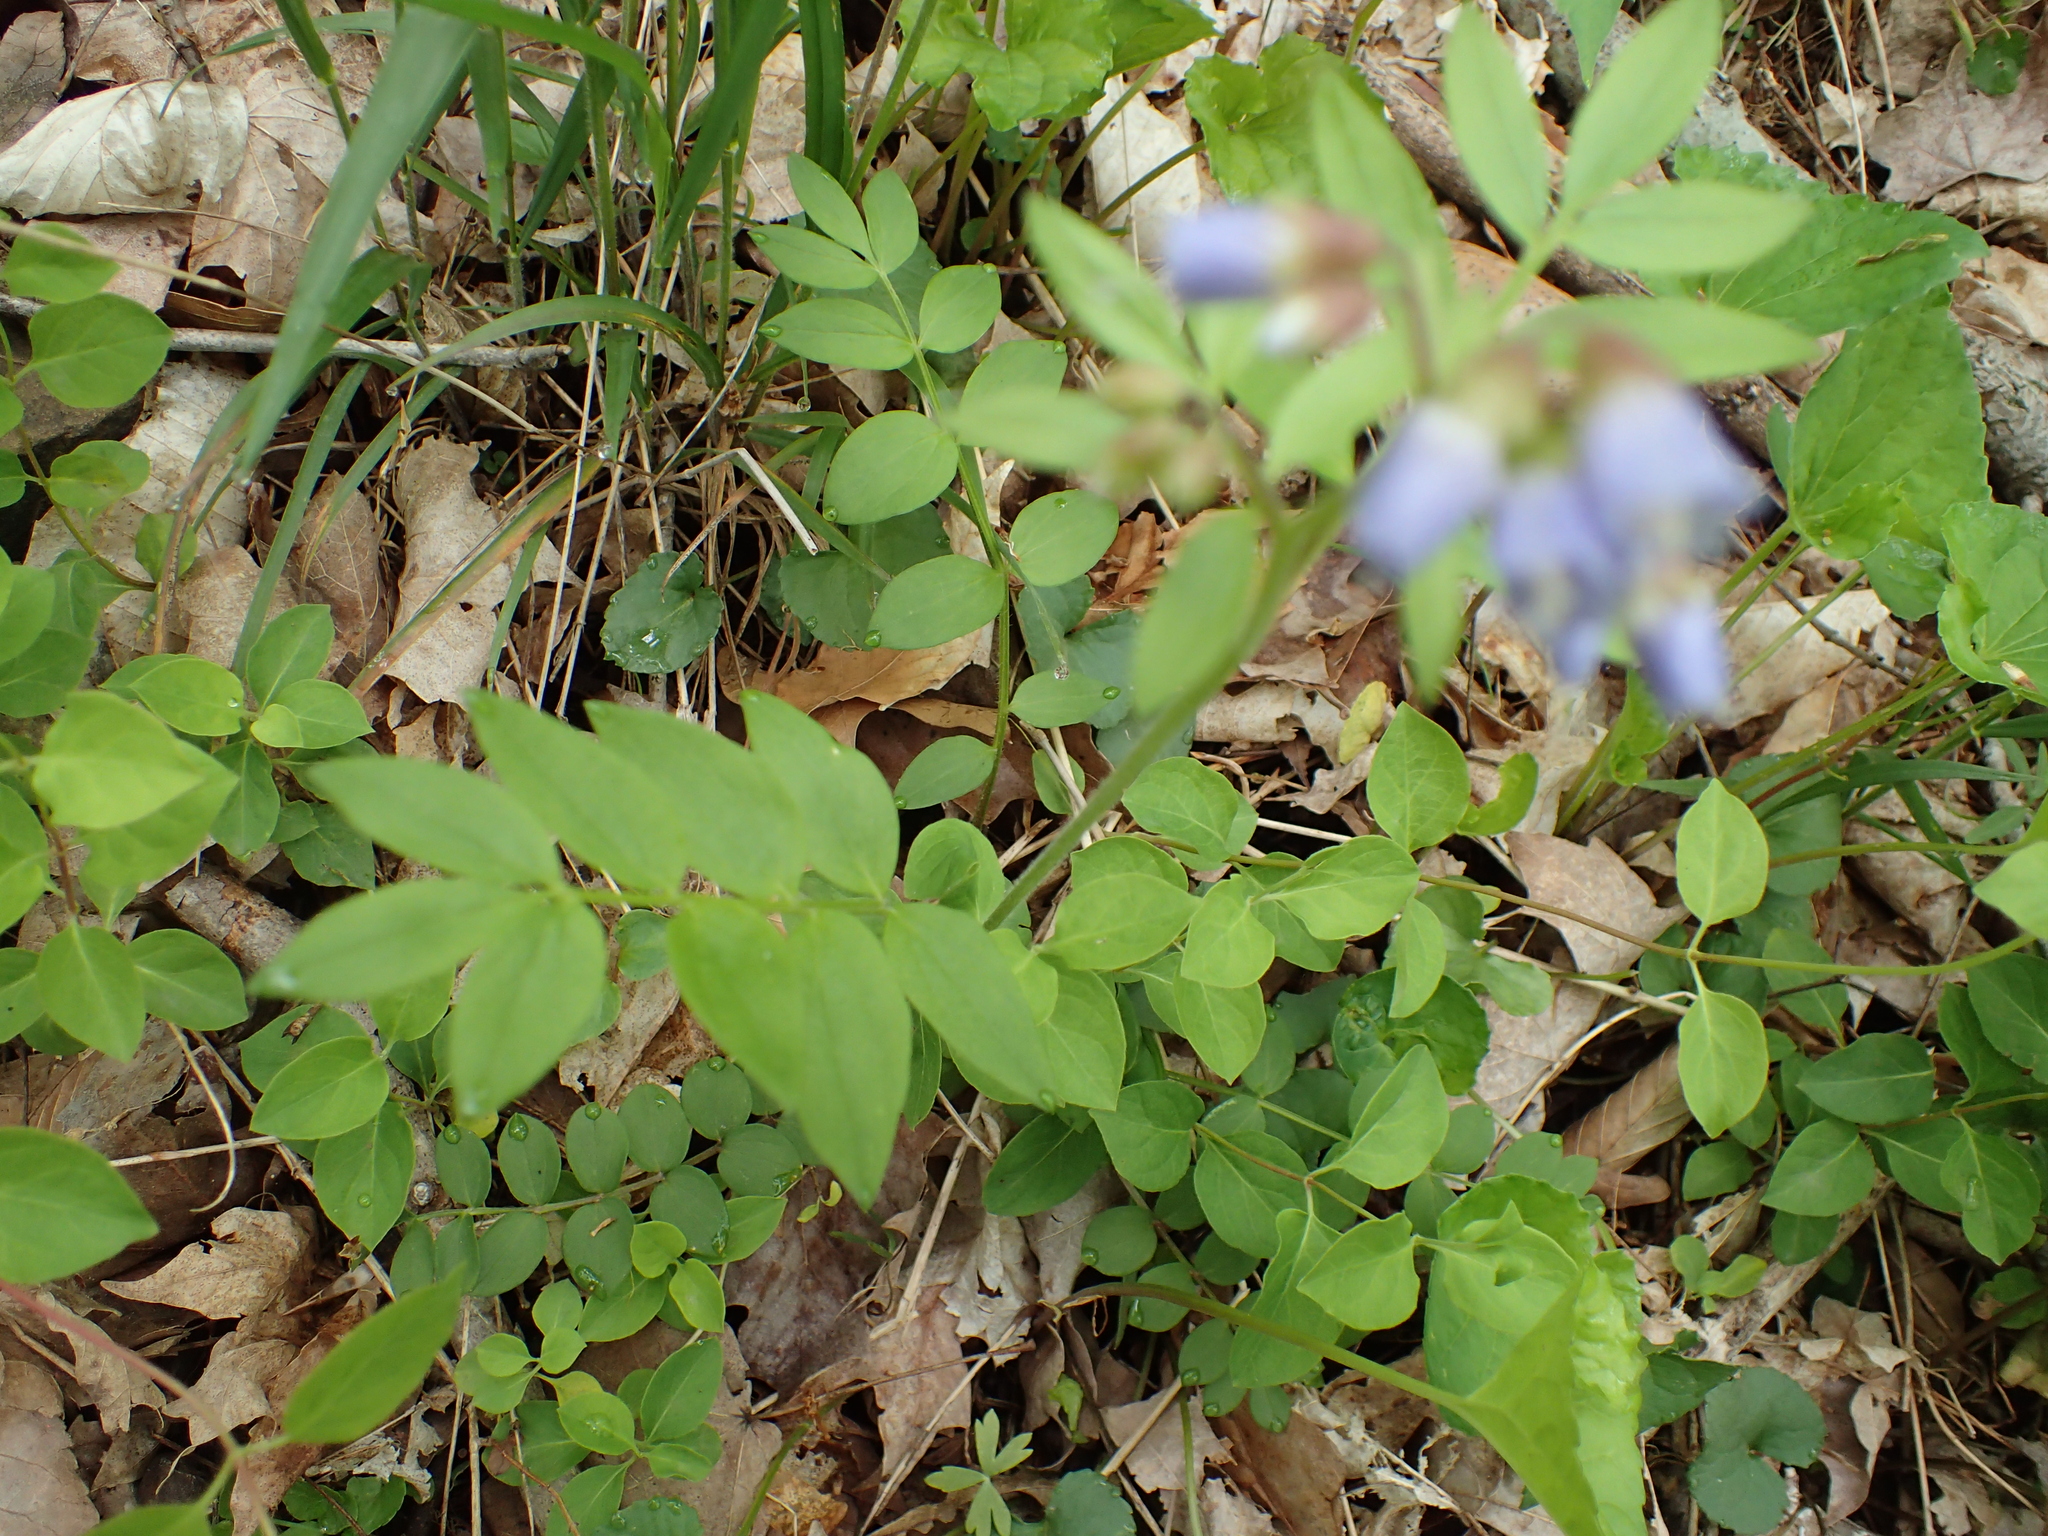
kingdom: Plantae
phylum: Tracheophyta
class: Magnoliopsida
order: Ericales
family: Polemoniaceae
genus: Polemonium
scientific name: Polemonium reptans
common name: Creeping jacob's-ladder
